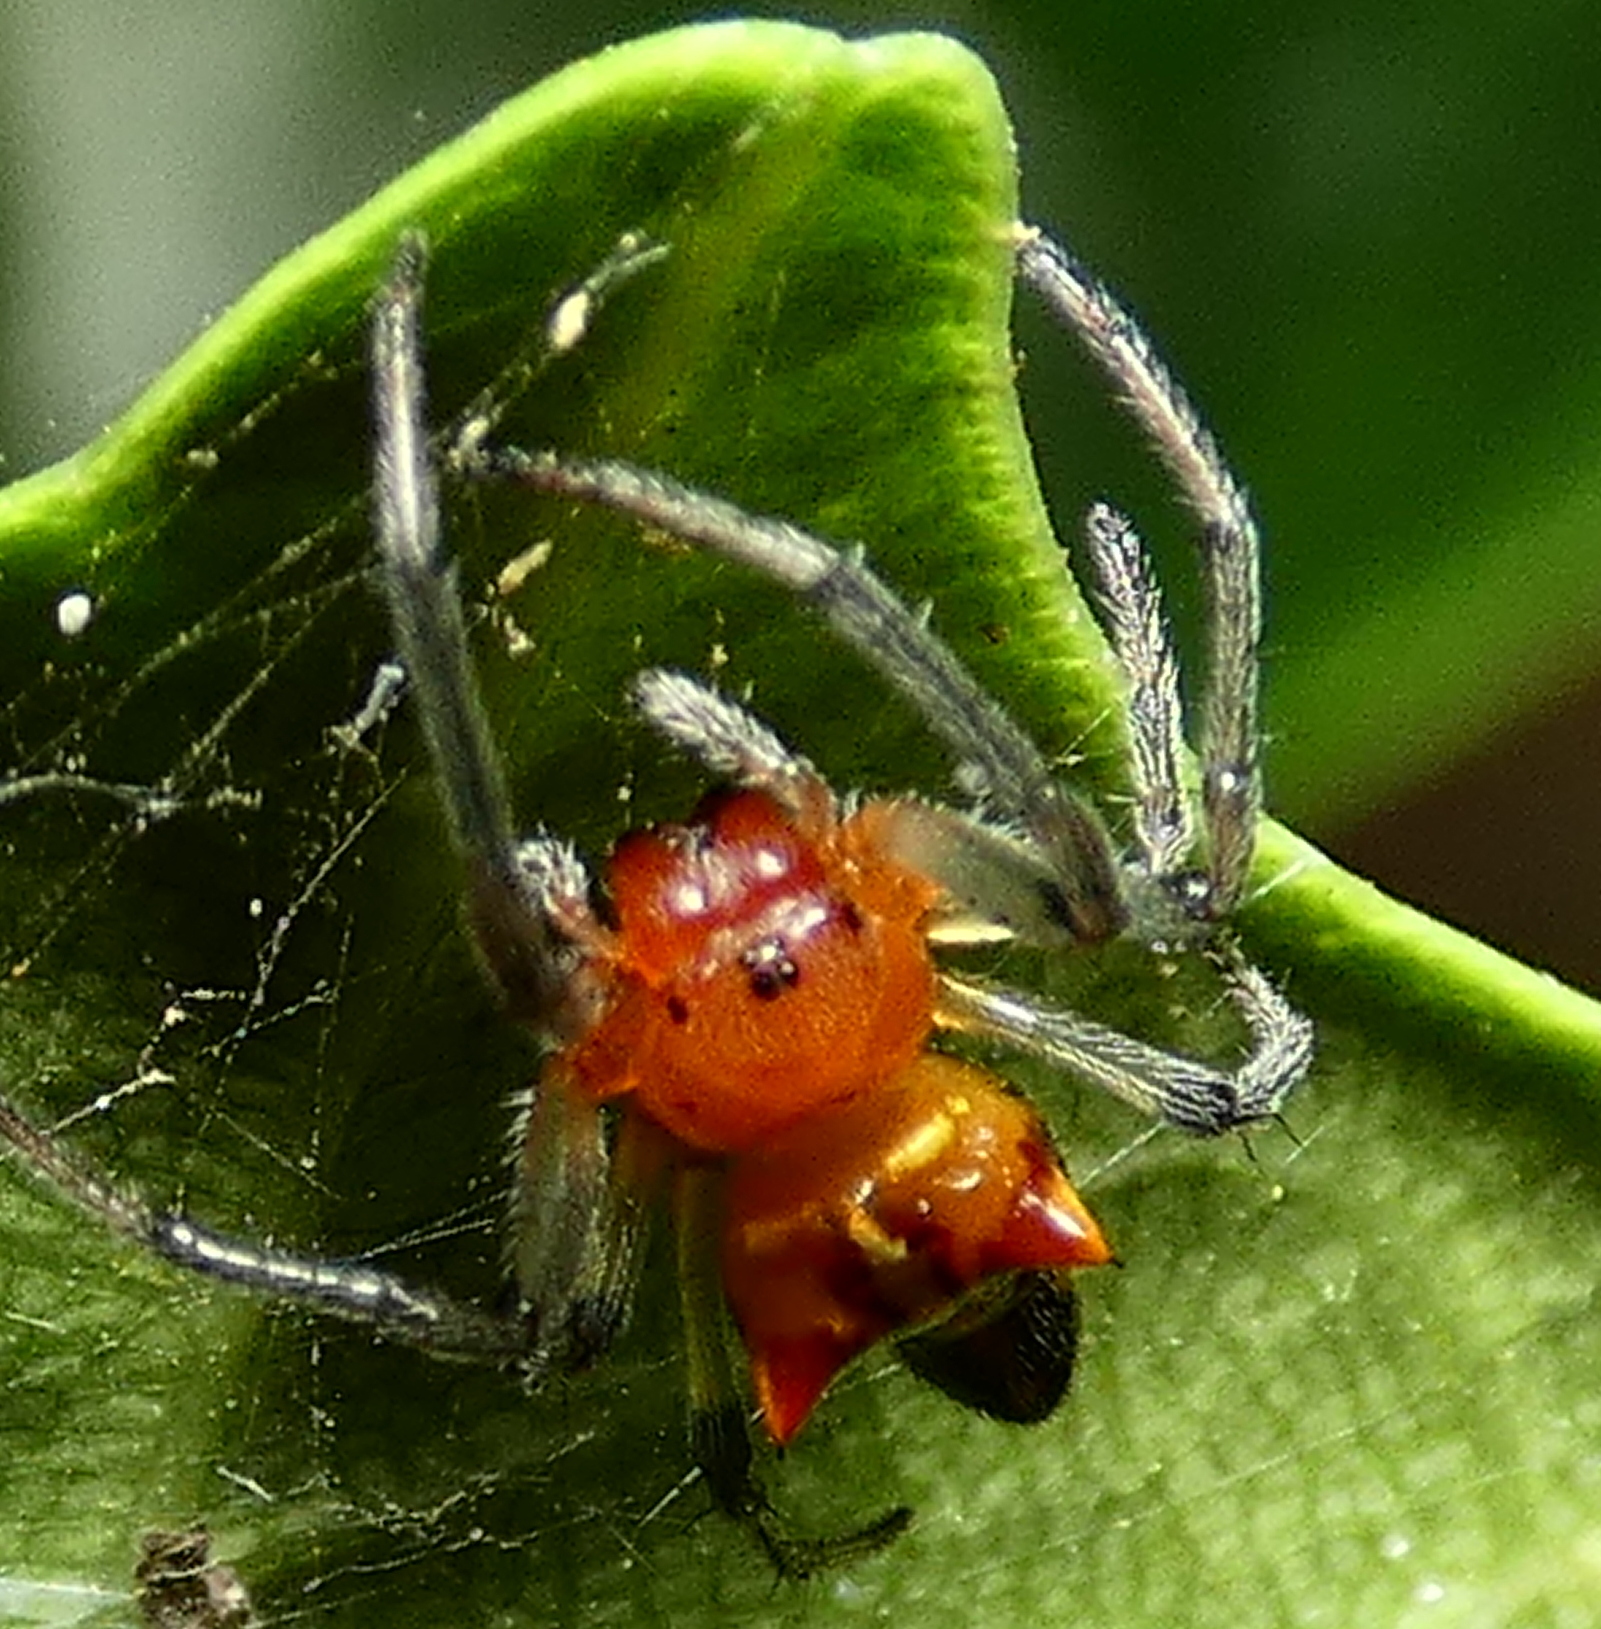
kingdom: Animalia
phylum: Arthropoda
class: Arachnida
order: Araneae
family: Araneidae
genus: Alpaida
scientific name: Alpaida bicornuta
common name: Orb weavers
